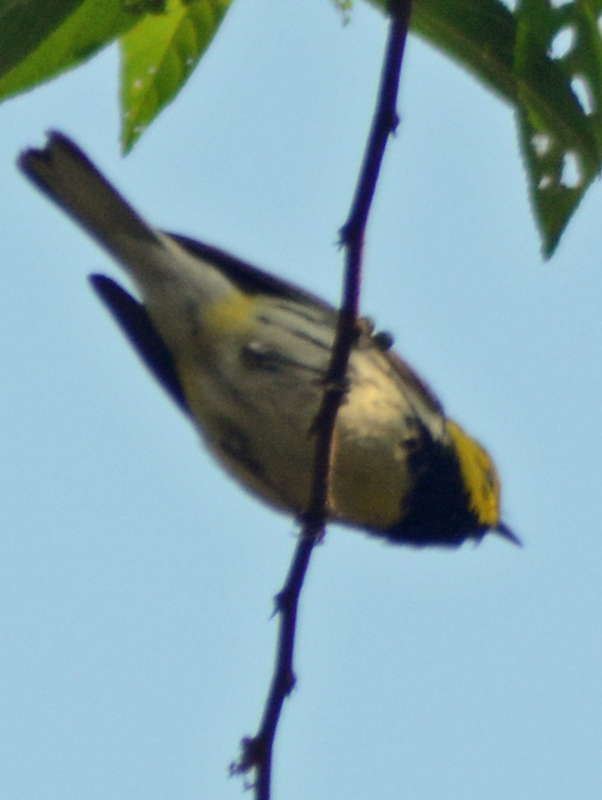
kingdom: Animalia
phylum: Chordata
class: Aves
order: Passeriformes
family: Parulidae
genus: Setophaga
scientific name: Setophaga virens
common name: Black-throated green warbler
